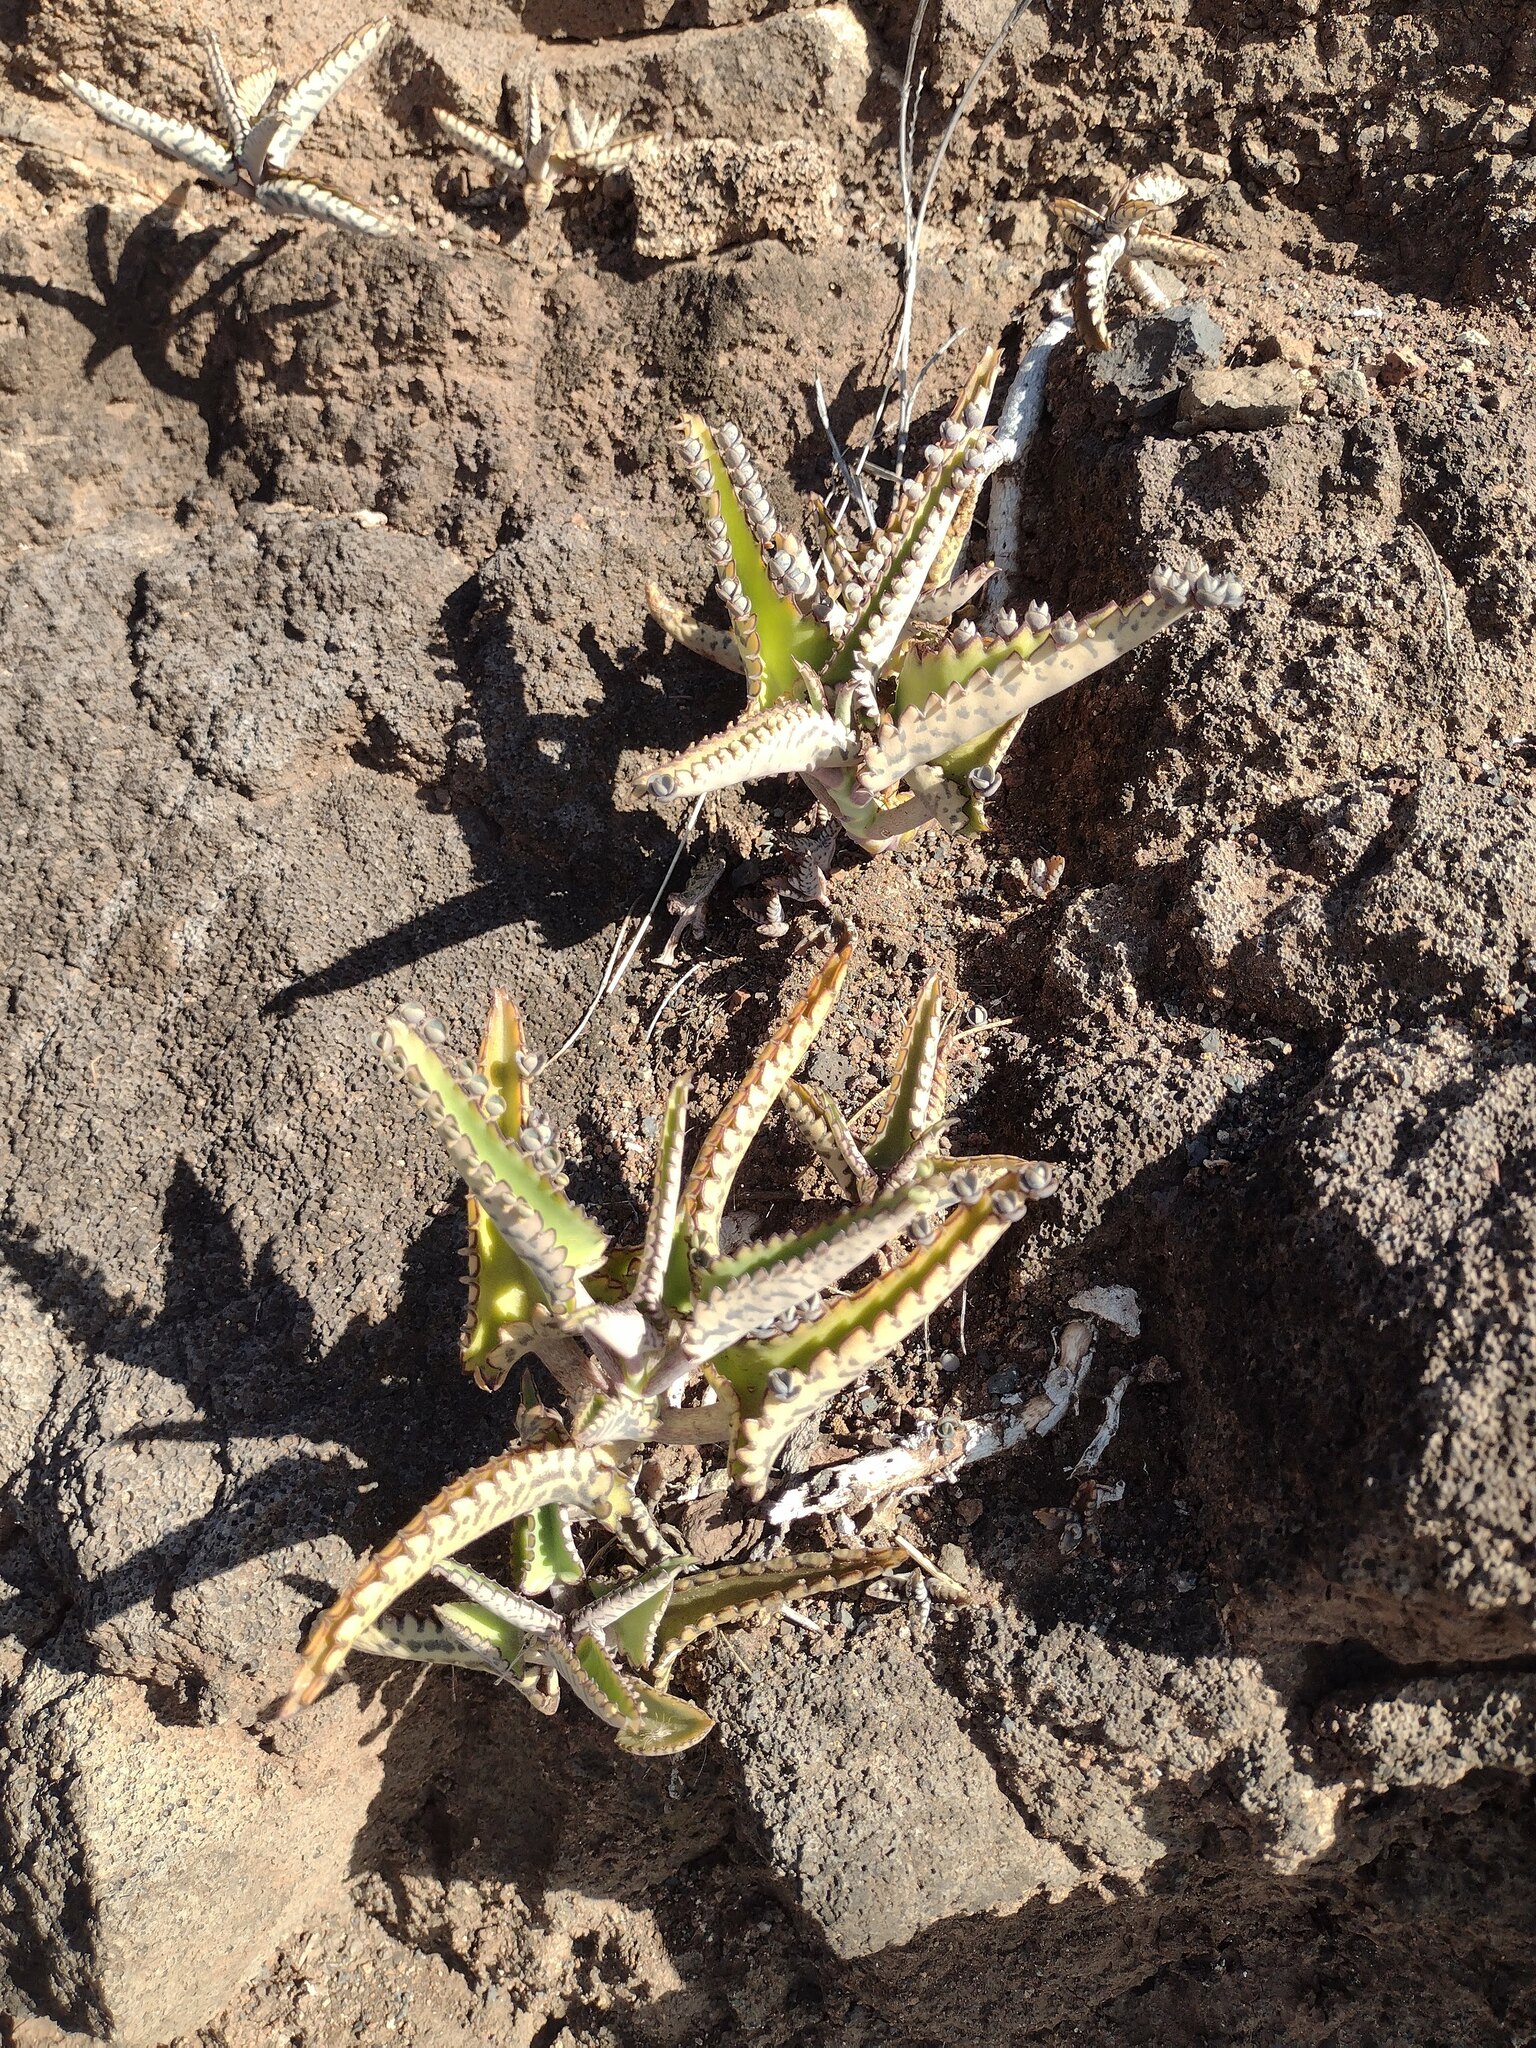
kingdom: Plantae
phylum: Tracheophyta
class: Magnoliopsida
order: Saxifragales
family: Crassulaceae
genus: Kalanchoe
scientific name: Kalanchoe daigremontiana
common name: Devil's backbone
